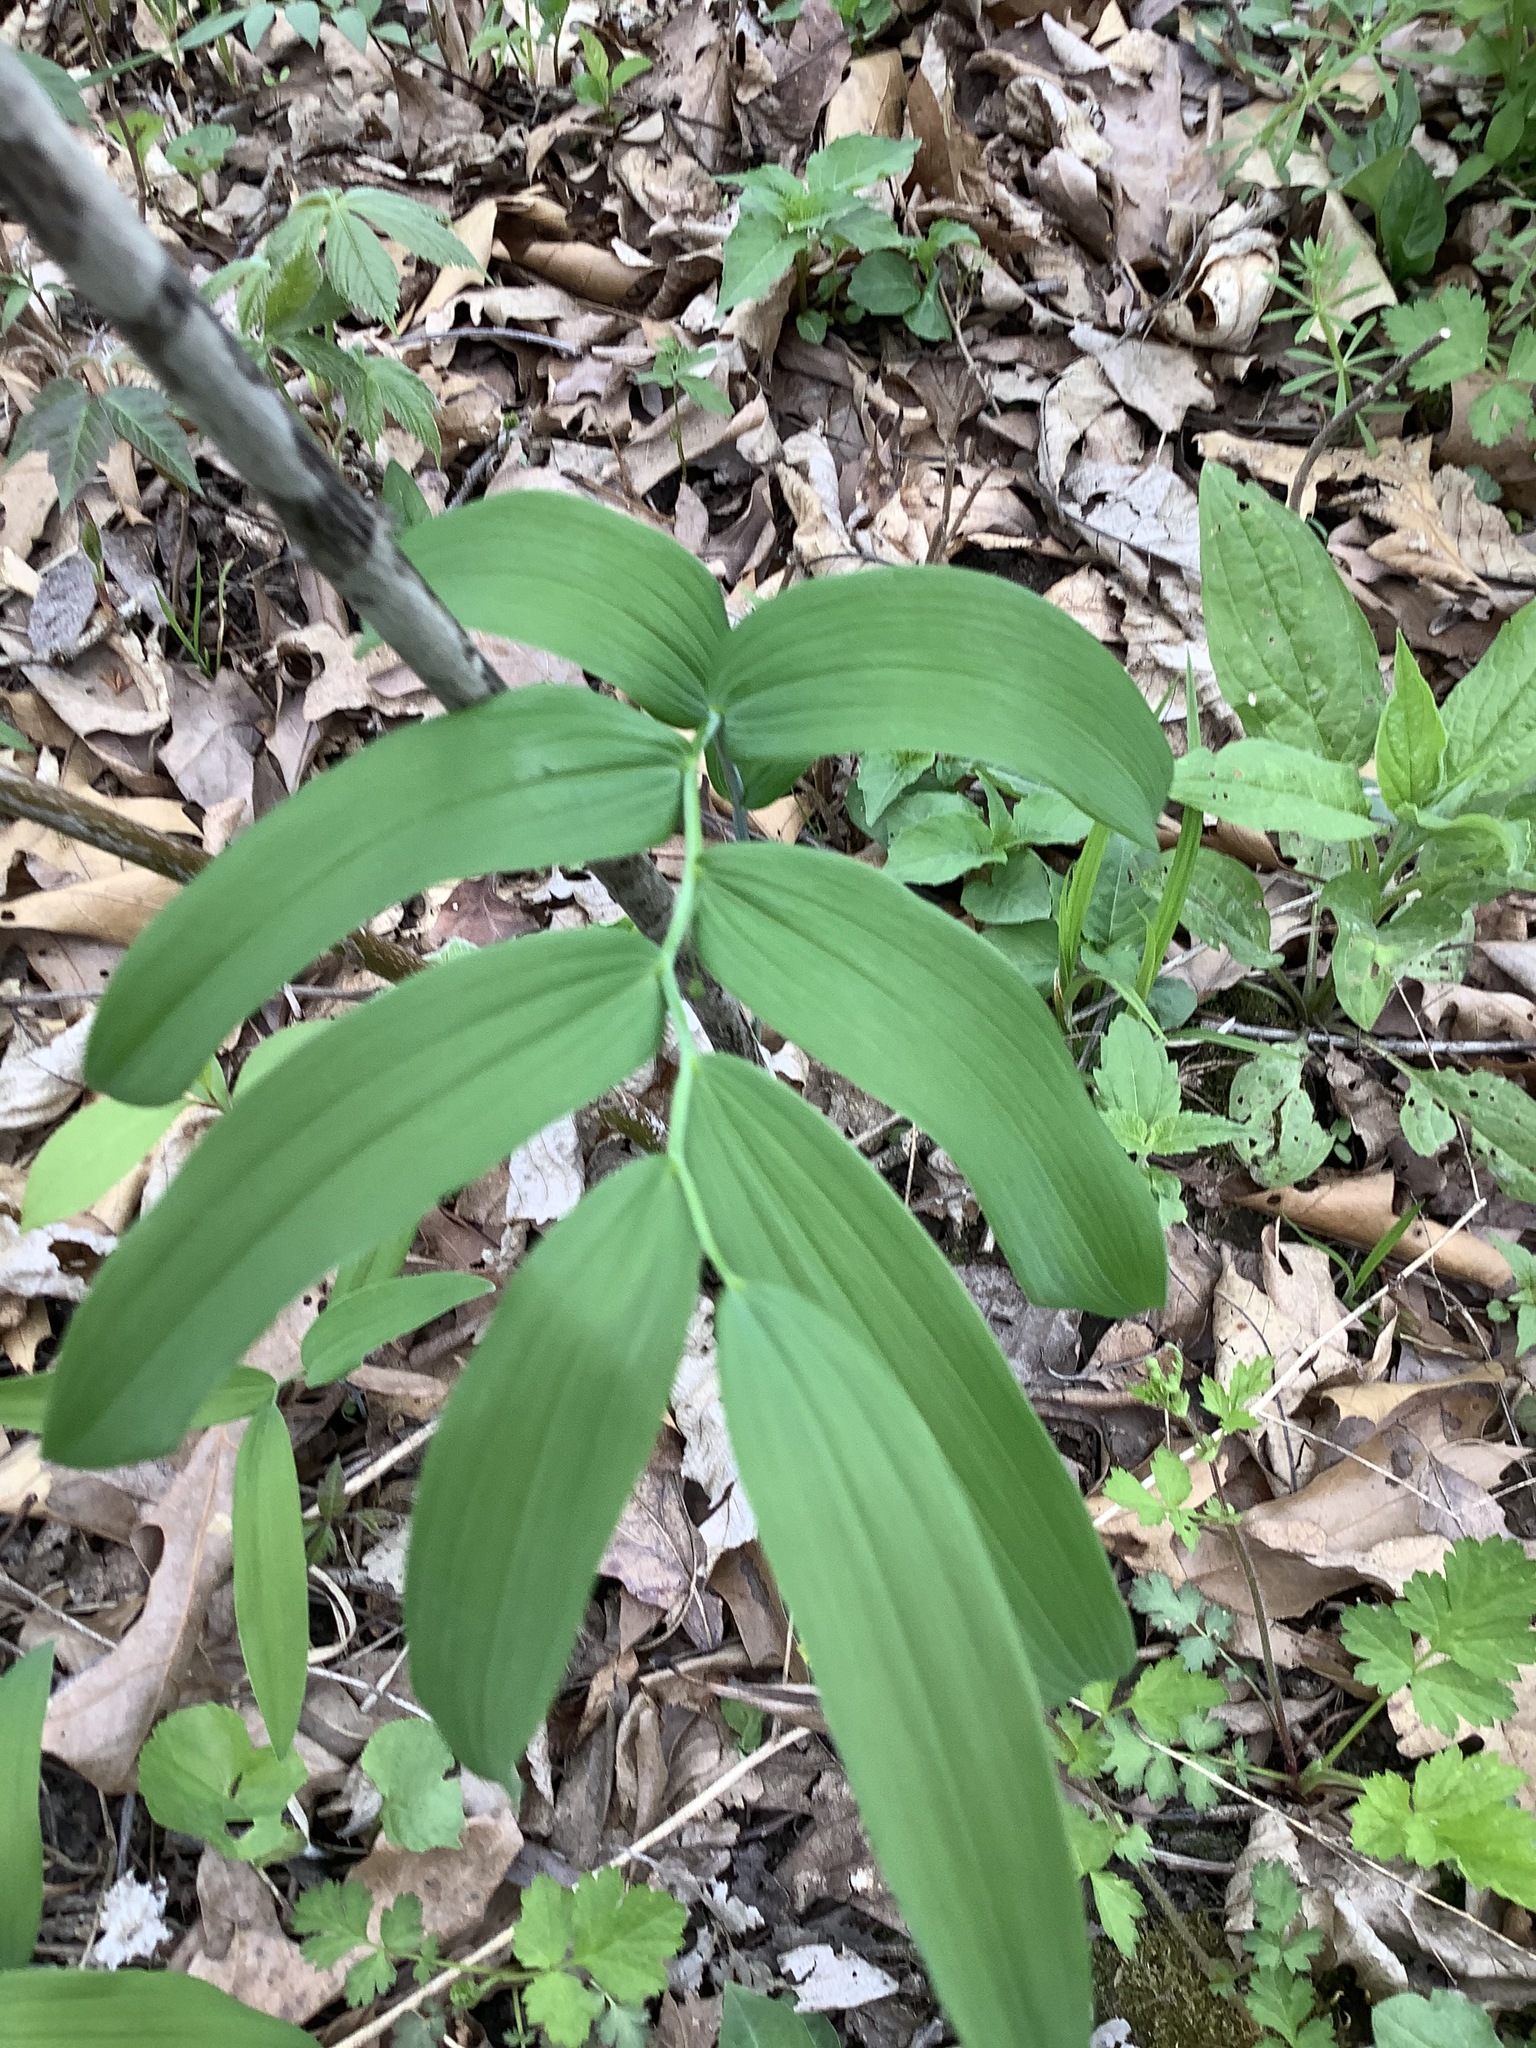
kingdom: Plantae
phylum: Tracheophyta
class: Liliopsida
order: Asparagales
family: Asparagaceae
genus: Polygonatum
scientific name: Polygonatum biflorum
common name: American solomon's-seal
